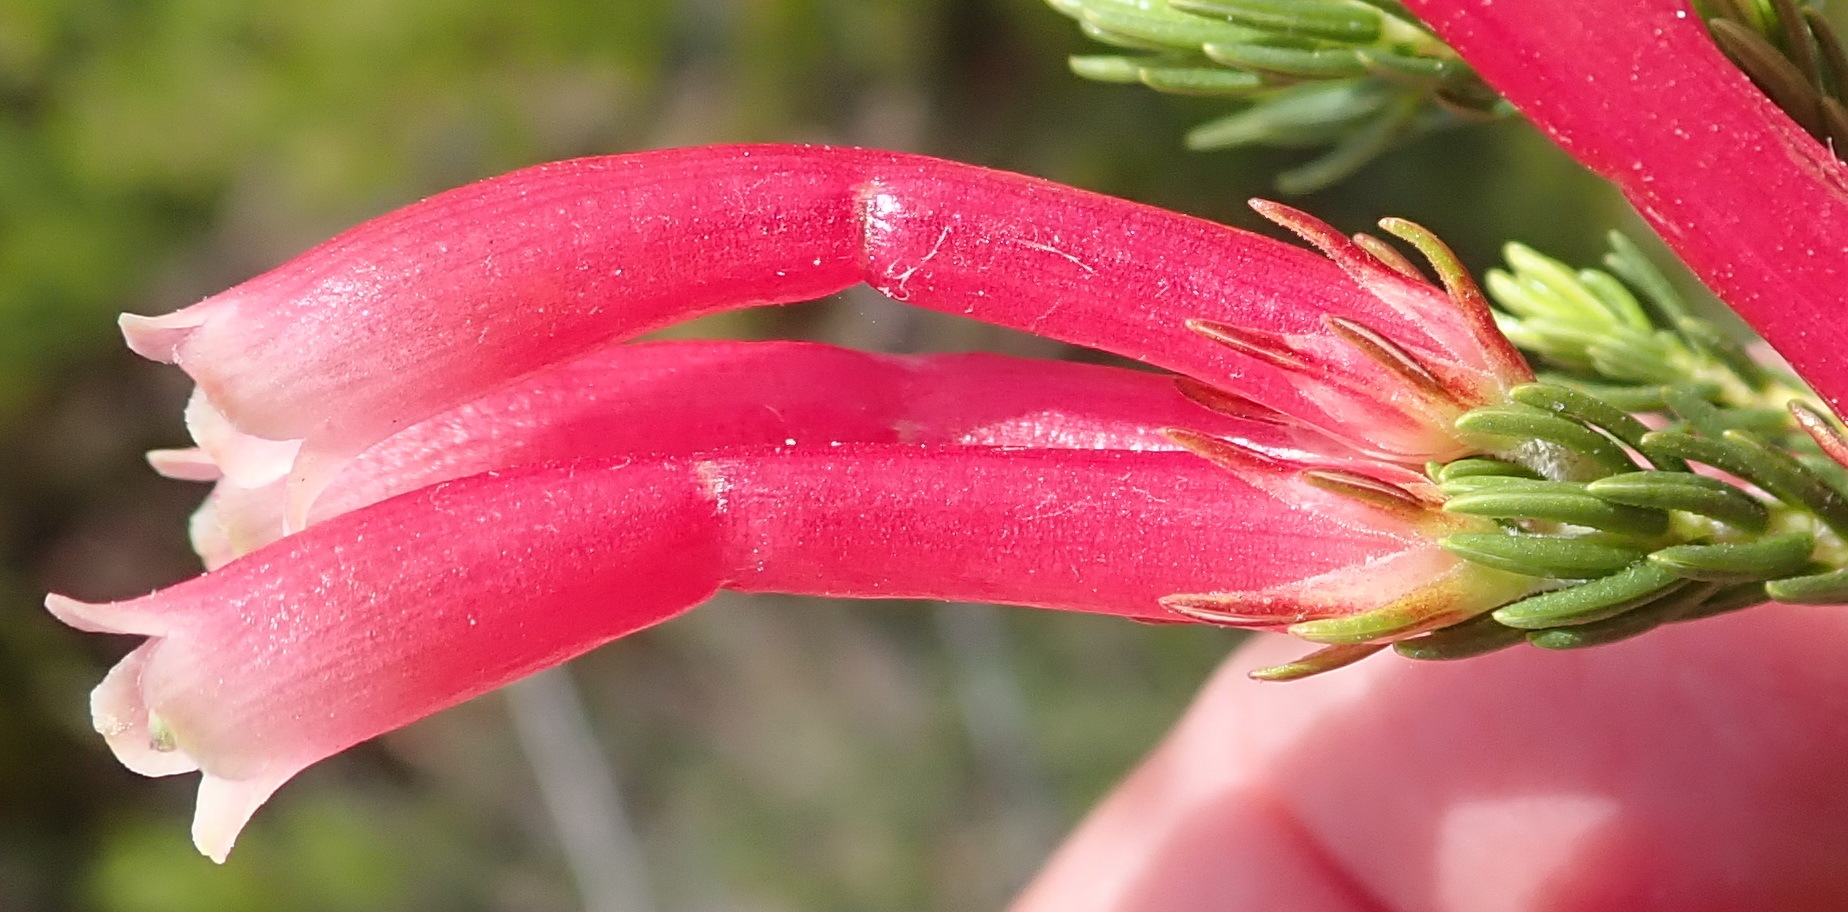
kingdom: Plantae
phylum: Tracheophyta
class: Magnoliopsida
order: Ericales
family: Ericaceae
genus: Erica
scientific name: Erica discolor
